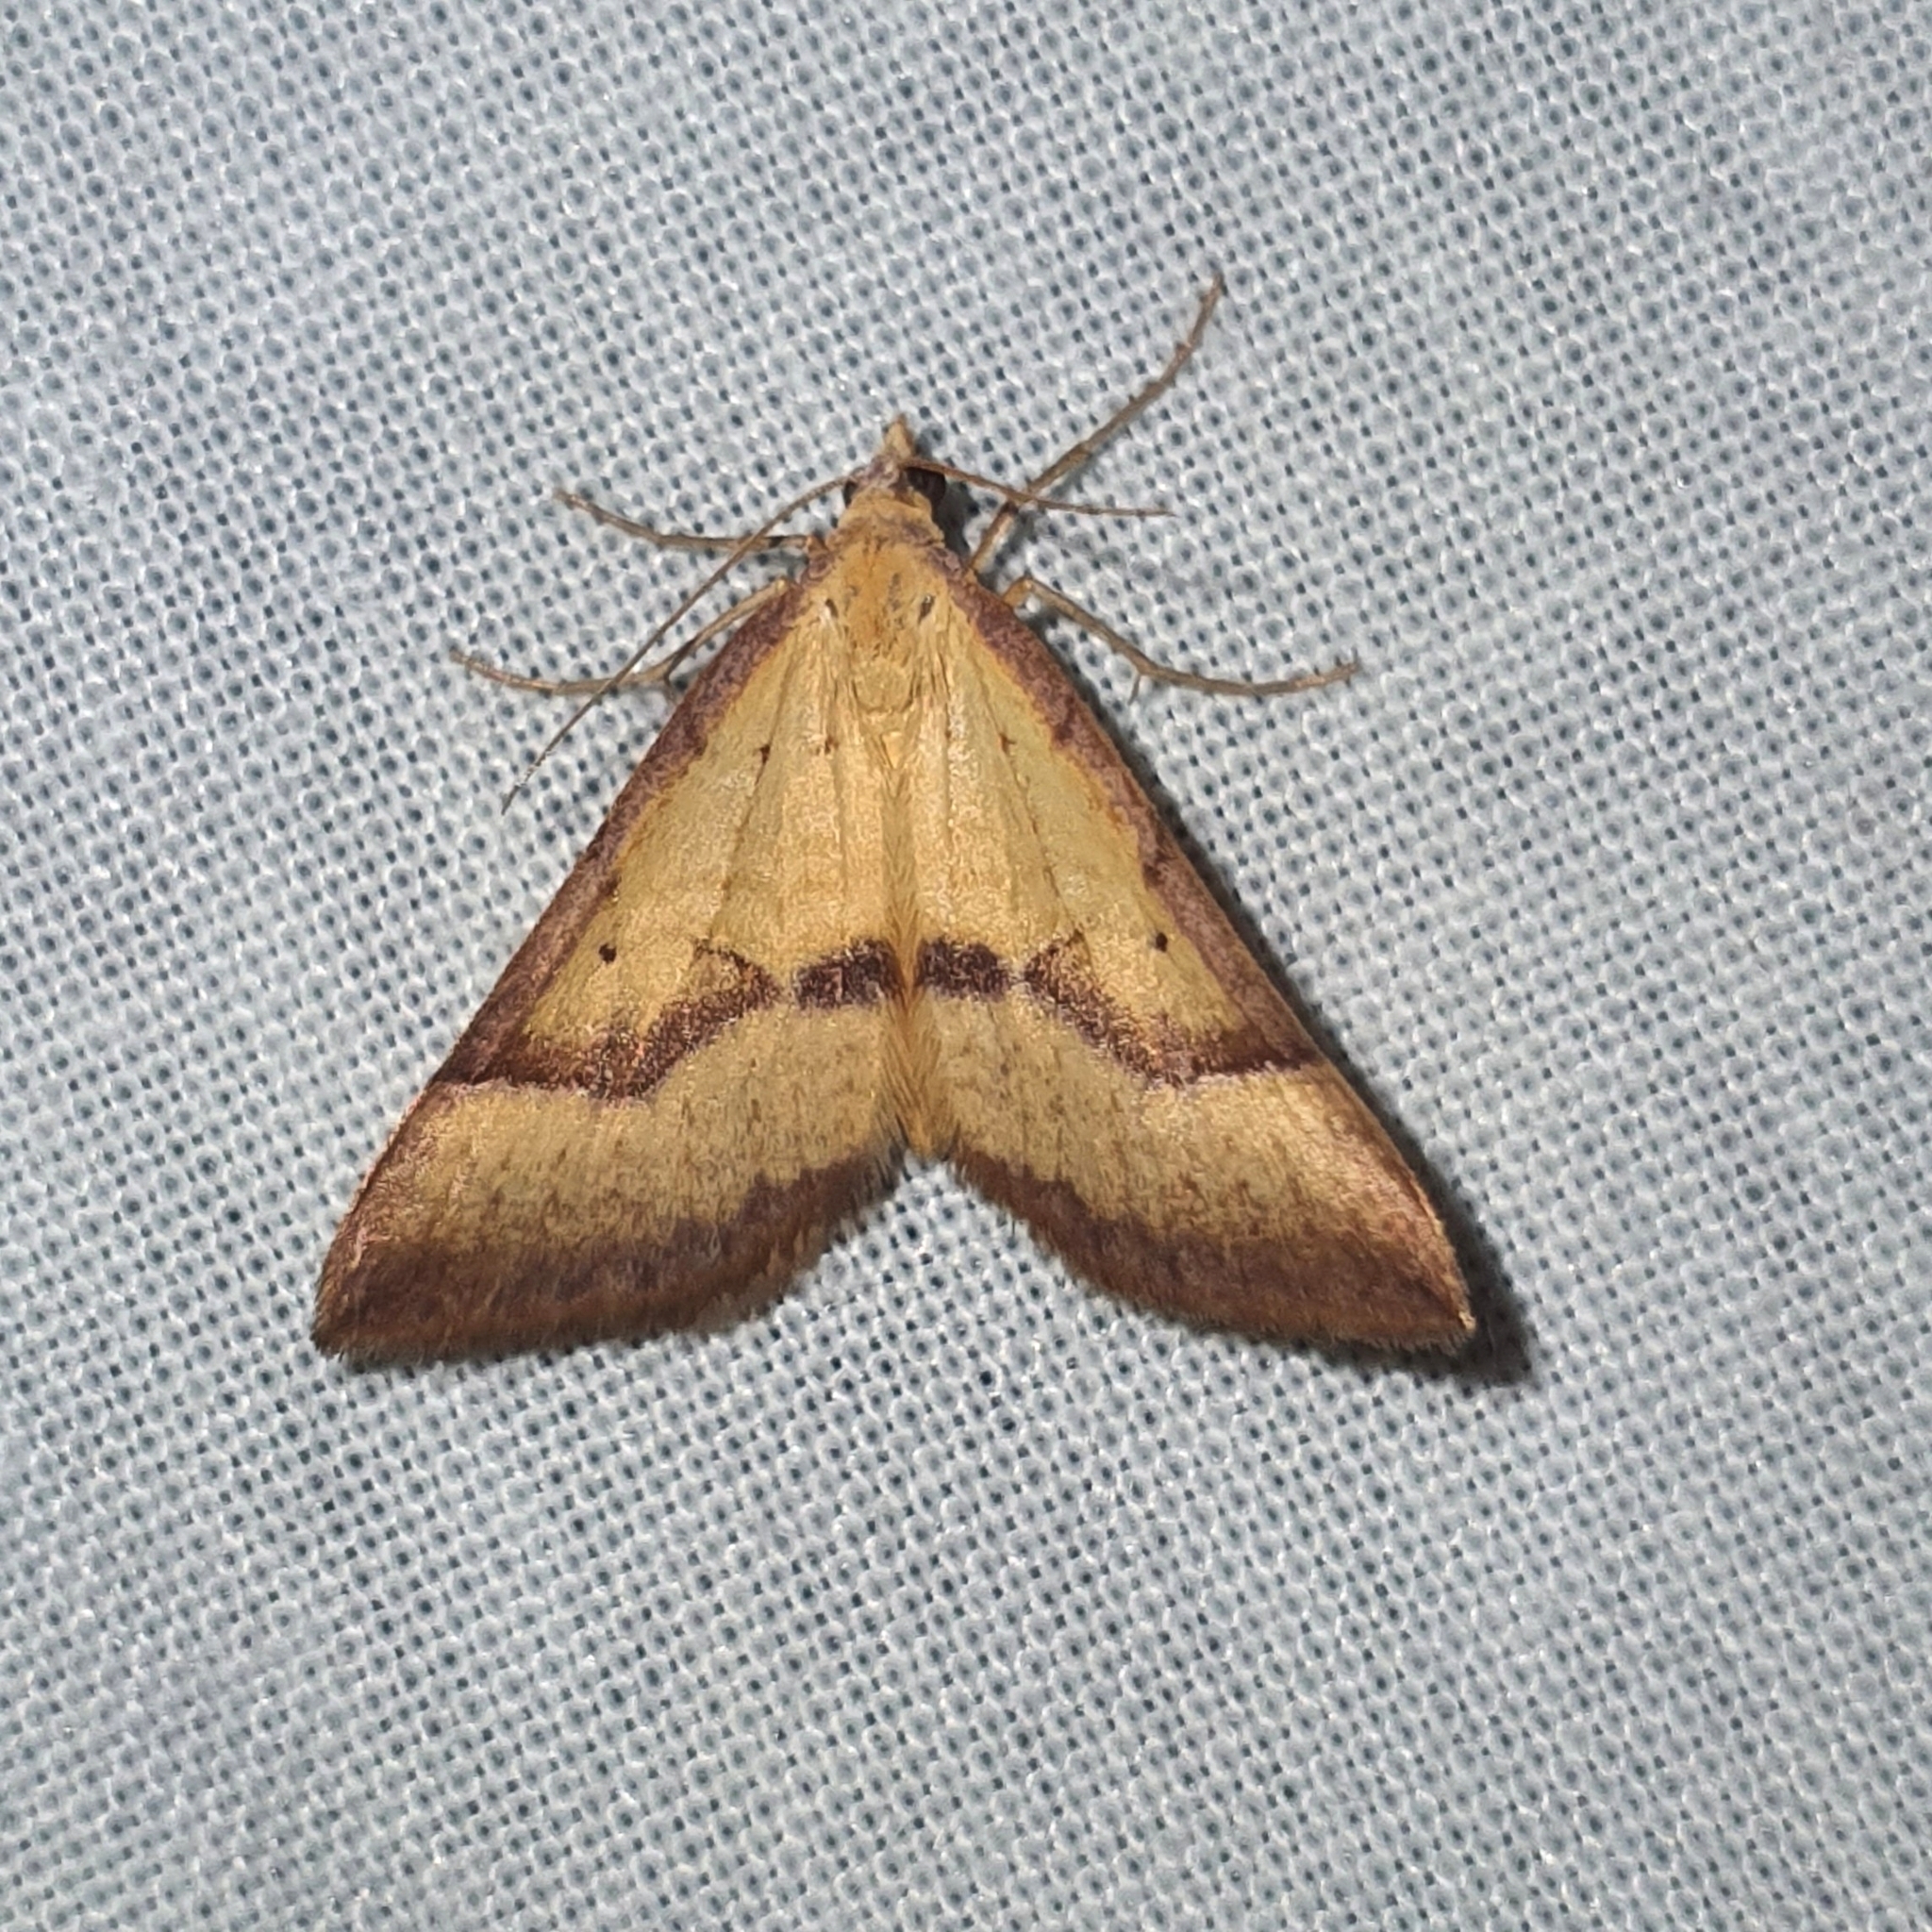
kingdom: Animalia
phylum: Arthropoda
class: Insecta
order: Lepidoptera
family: Geometridae
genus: Anachloris
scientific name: Anachloris subochraria
